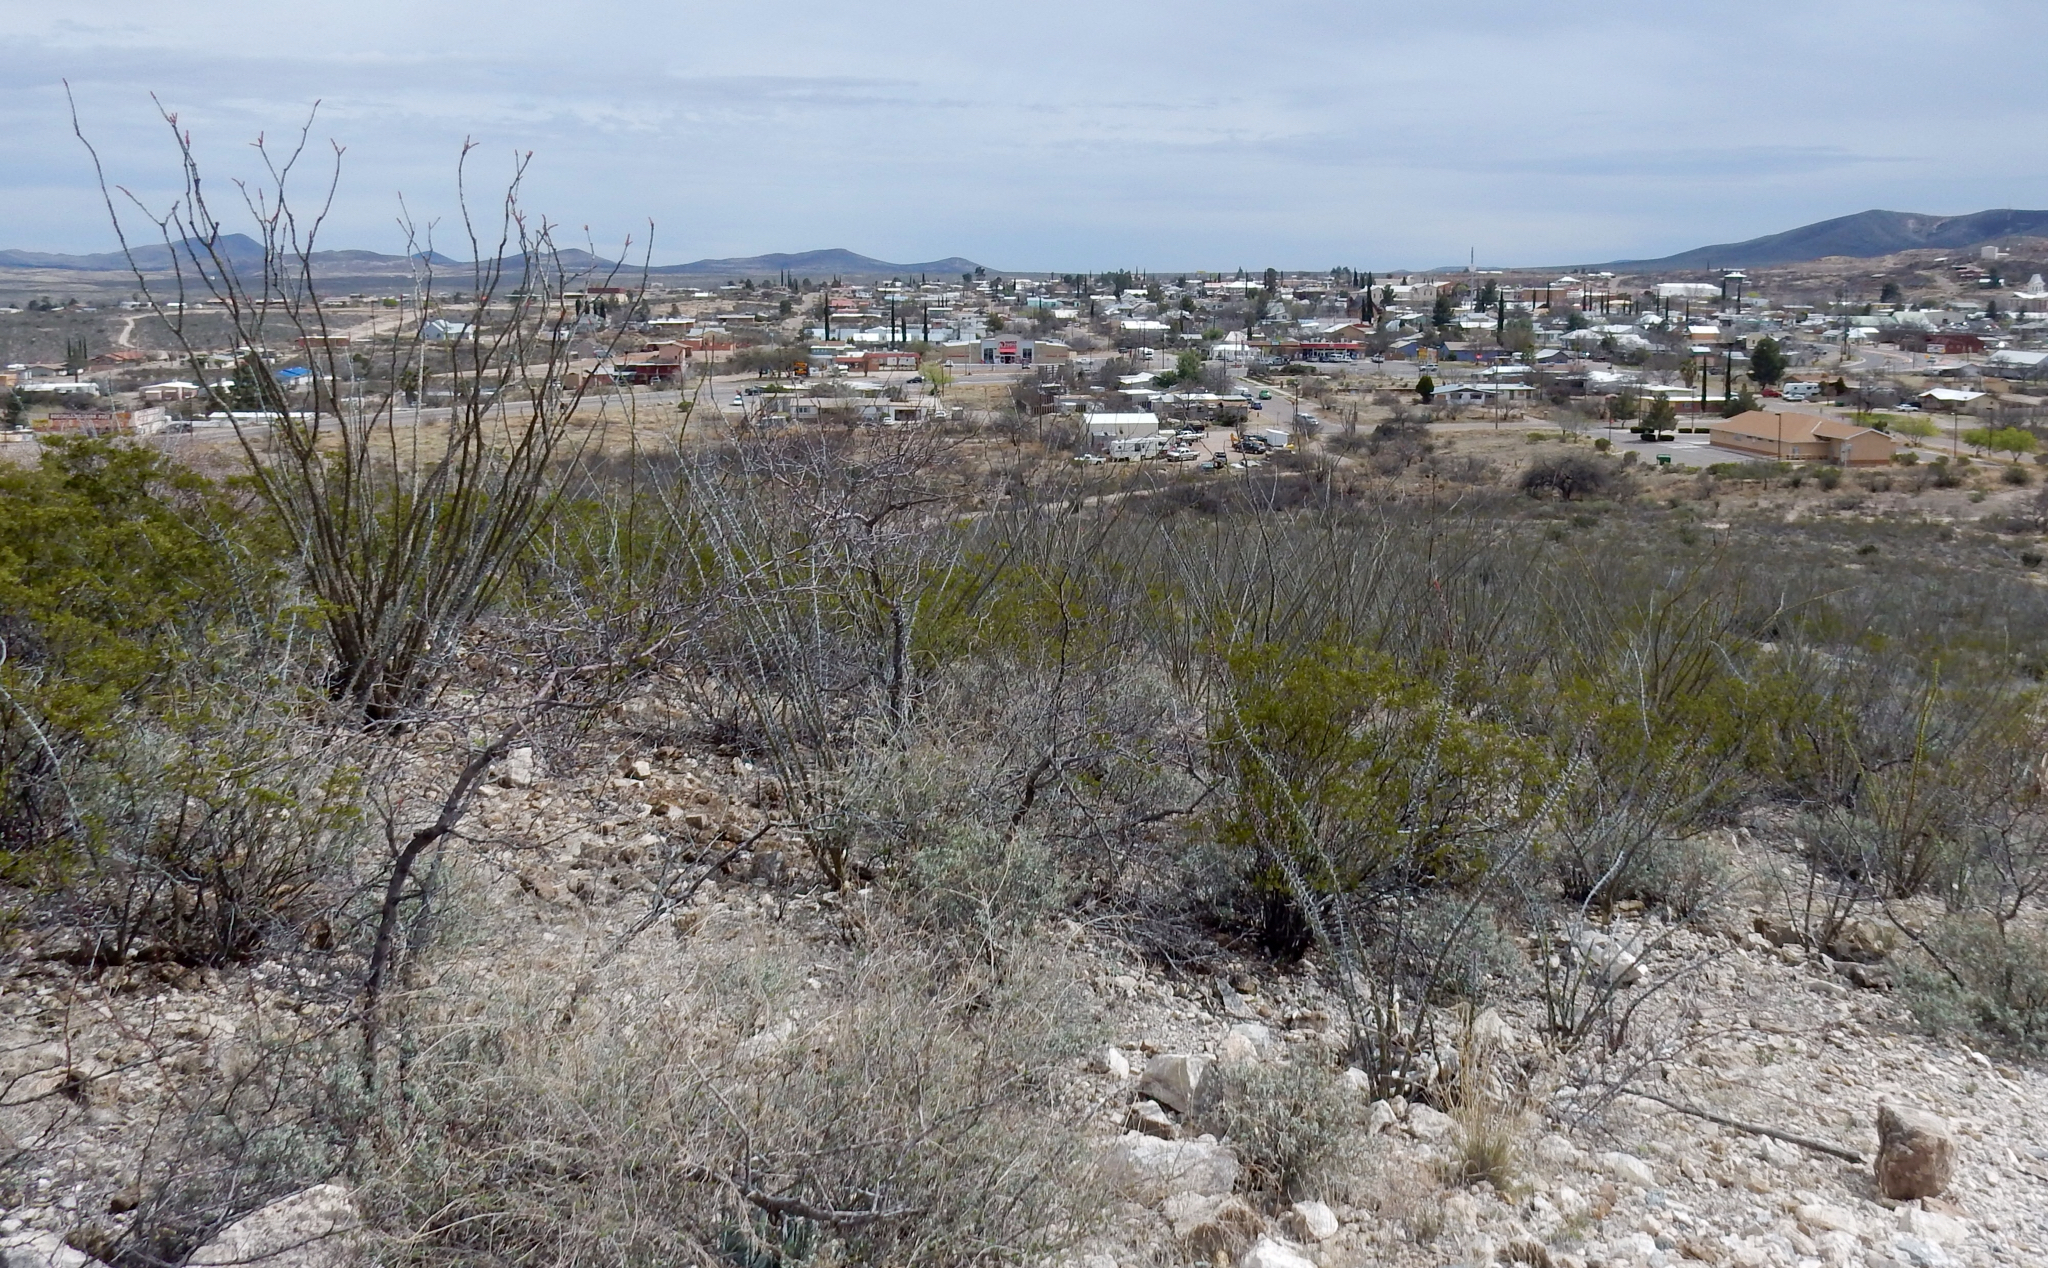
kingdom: Plantae
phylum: Tracheophyta
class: Magnoliopsida
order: Ericales
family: Fouquieriaceae
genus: Fouquieria
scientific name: Fouquieria splendens
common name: Vine-cactus
